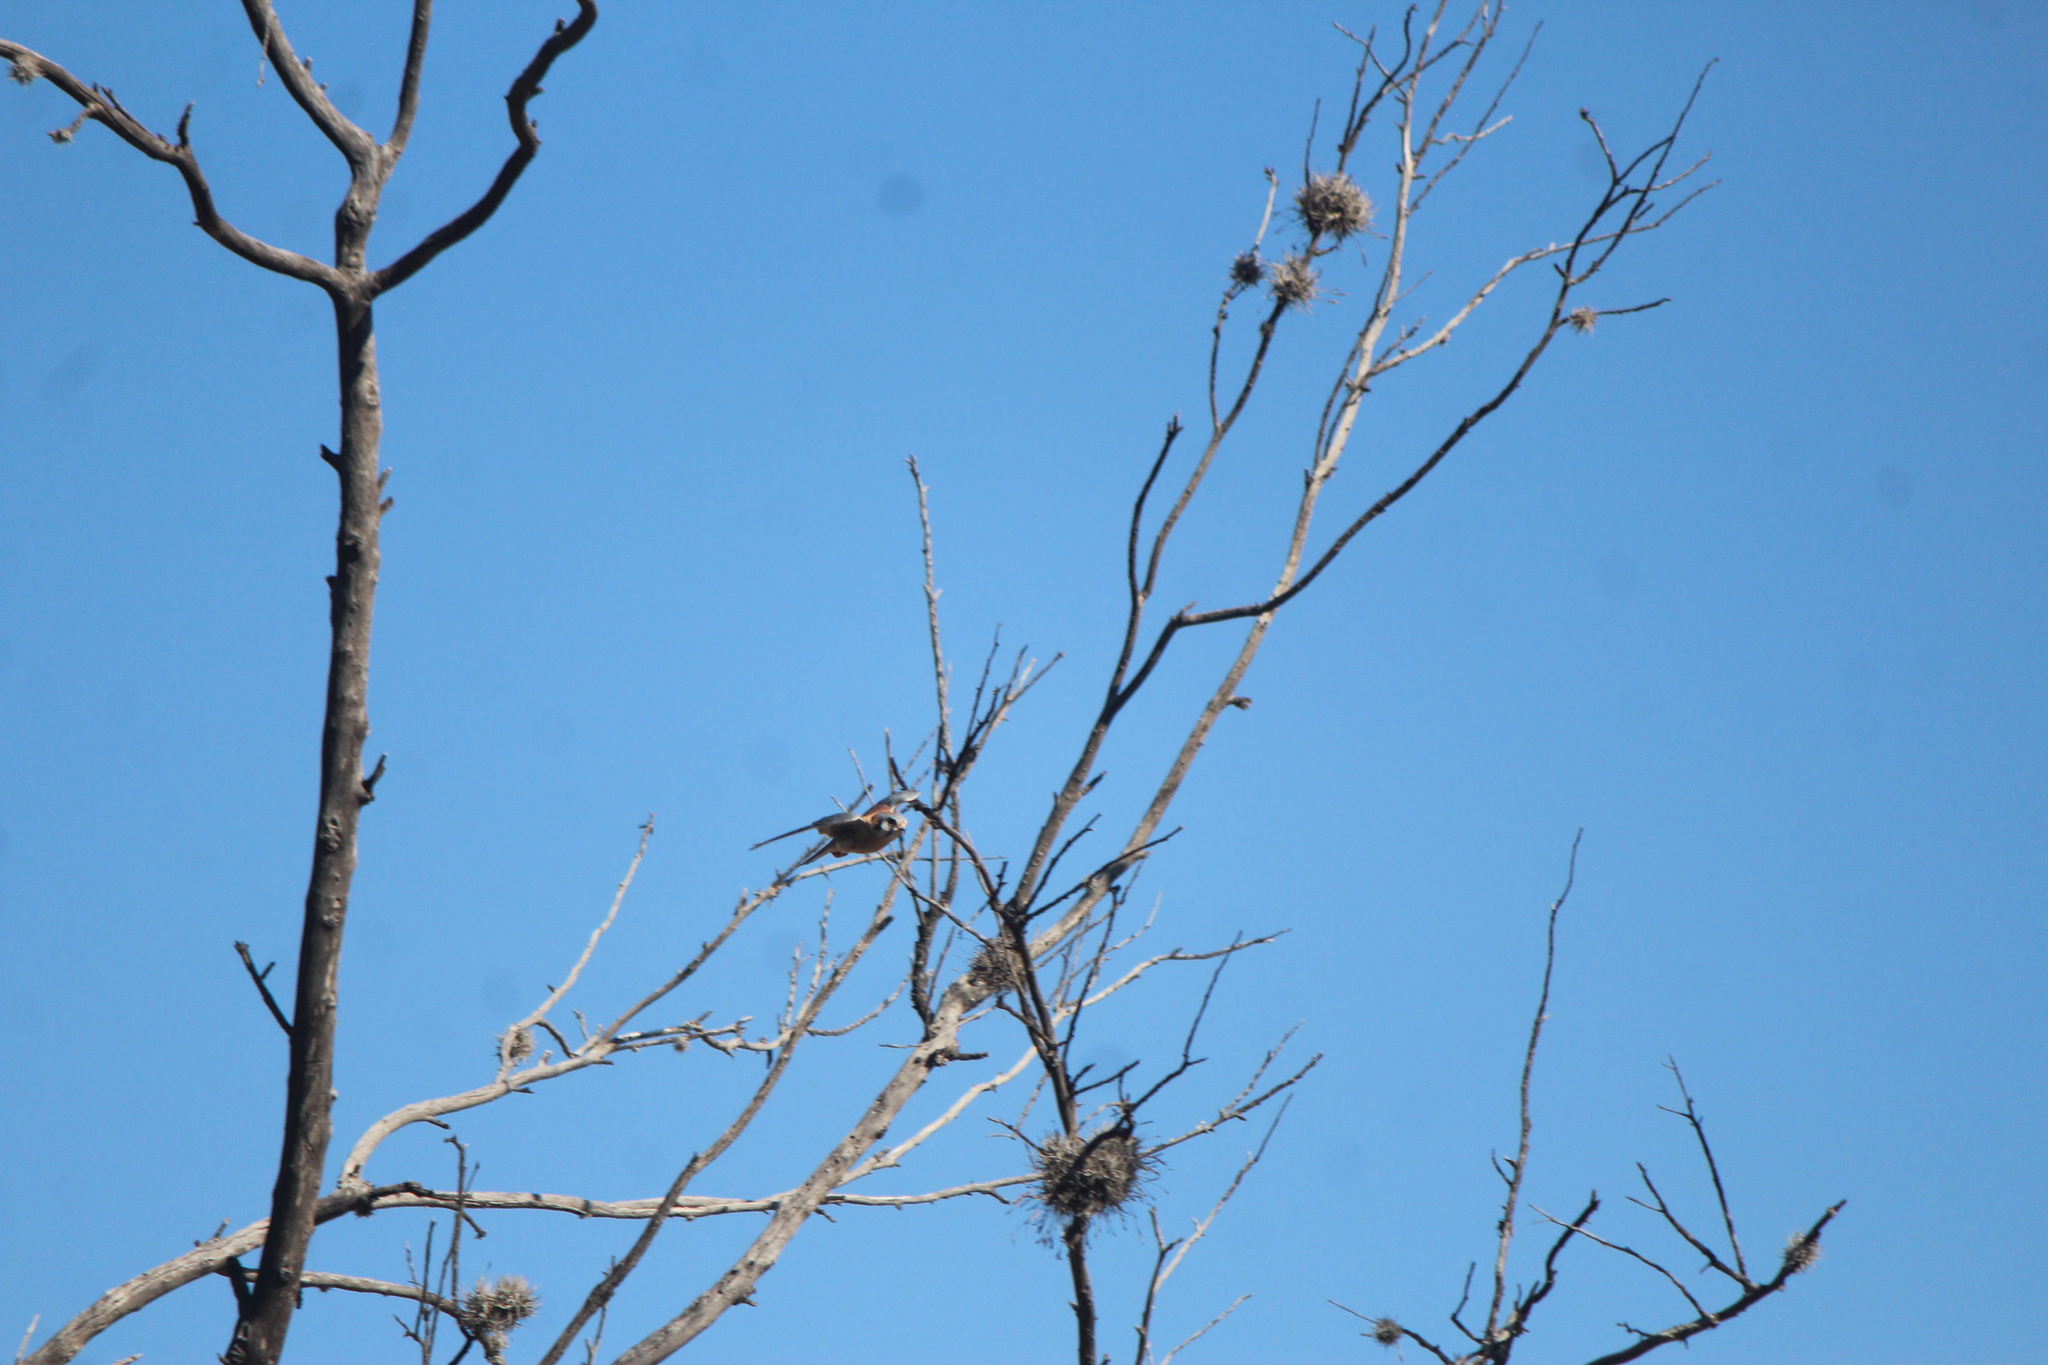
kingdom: Animalia
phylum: Chordata
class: Aves
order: Falconiformes
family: Falconidae
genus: Falco
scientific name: Falco sparverius
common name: American kestrel
